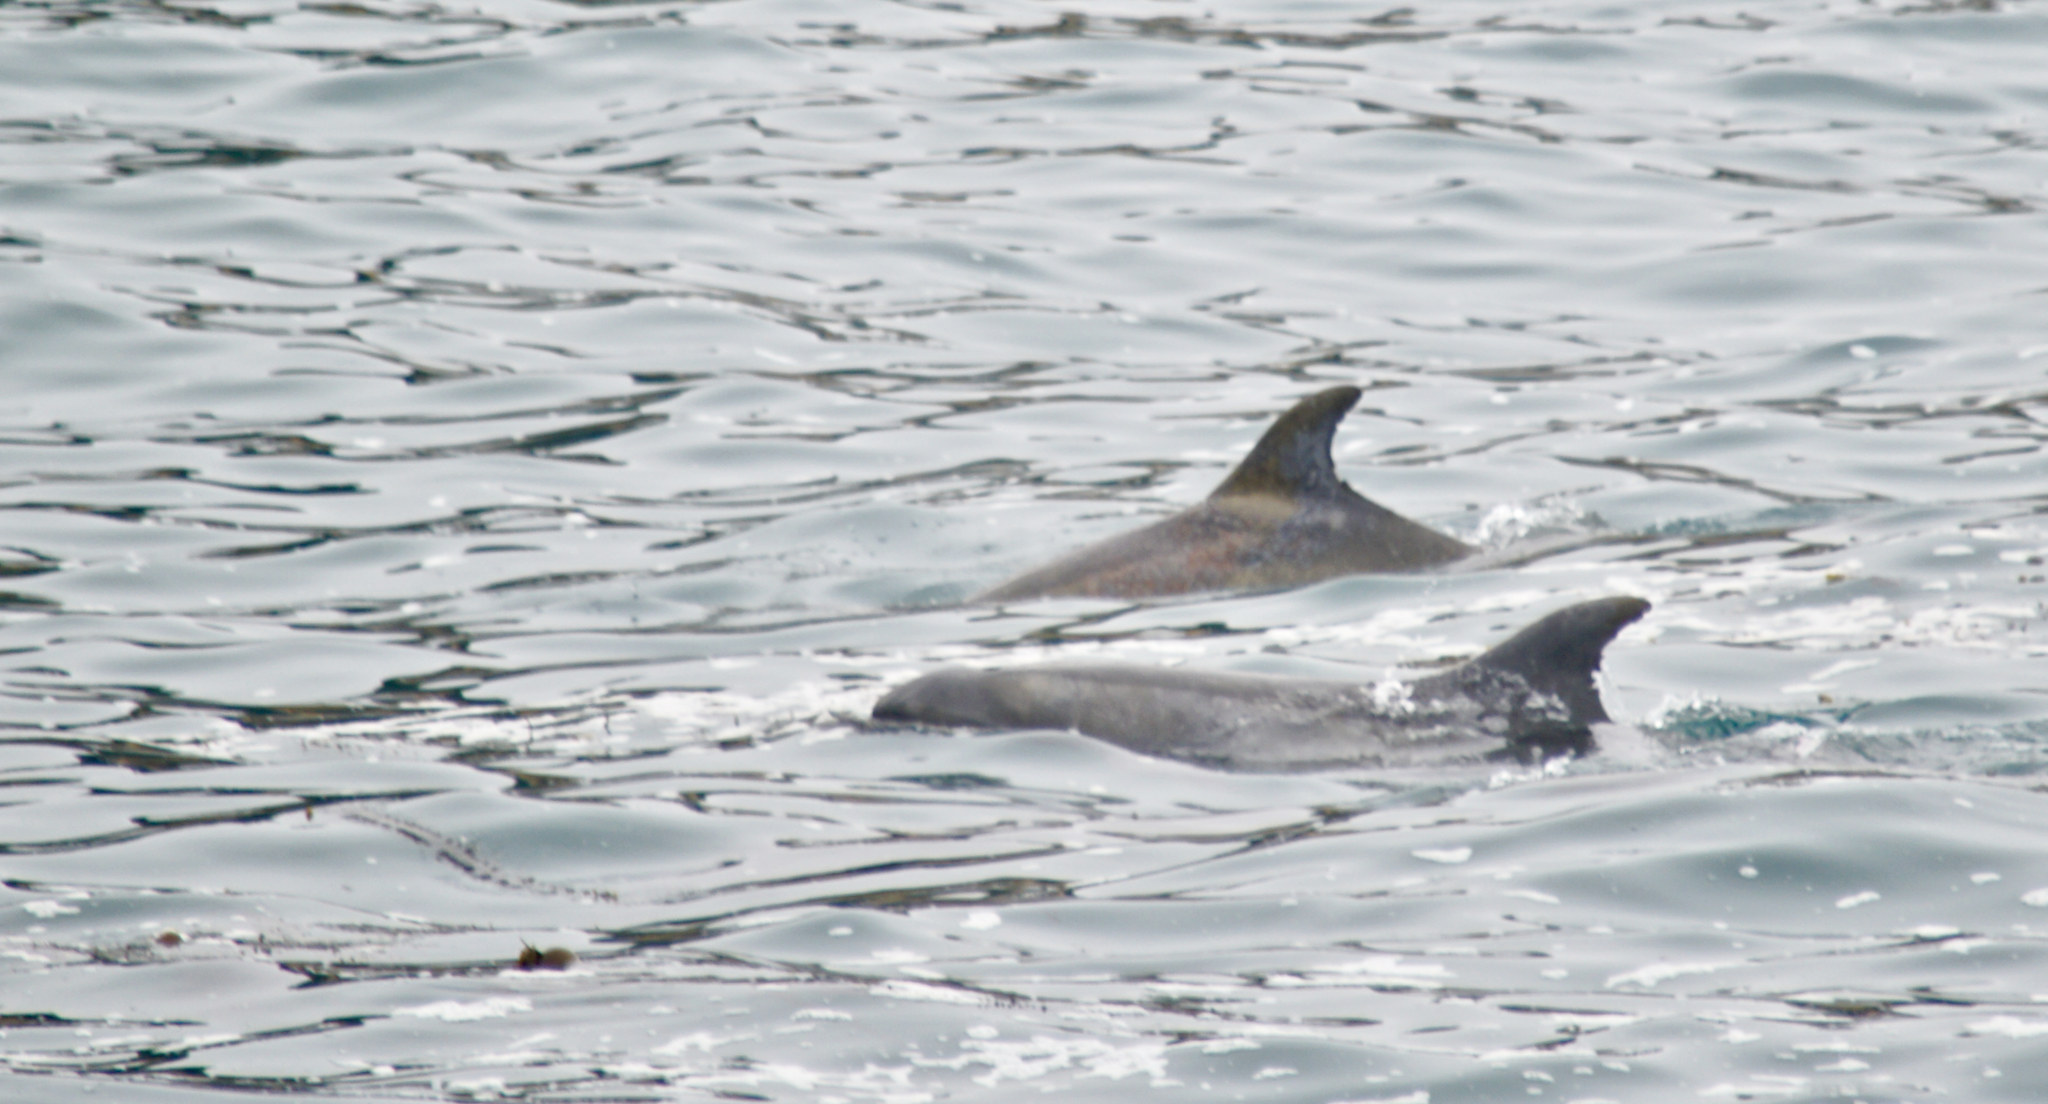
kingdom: Animalia
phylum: Chordata
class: Mammalia
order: Cetacea
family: Delphinidae
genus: Tursiops
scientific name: Tursiops truncatus
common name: Bottlenose dolphin
